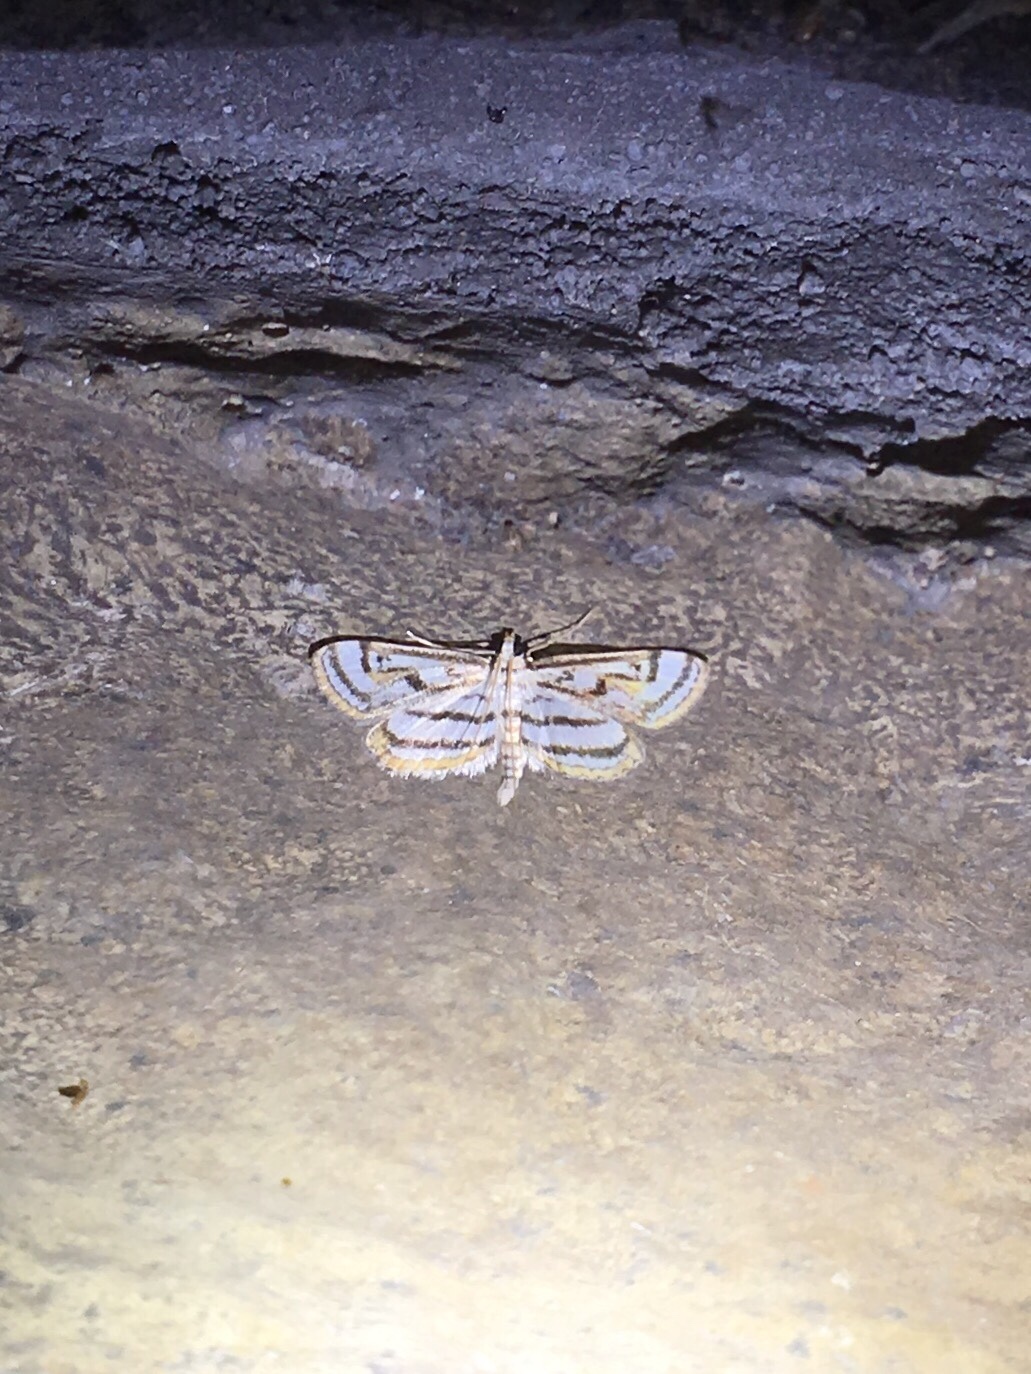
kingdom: Animalia
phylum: Arthropoda
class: Insecta
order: Lepidoptera
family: Crambidae
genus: Parapoynx
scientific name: Parapoynx badiusalis
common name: Chestnut-marked pondweed moth
